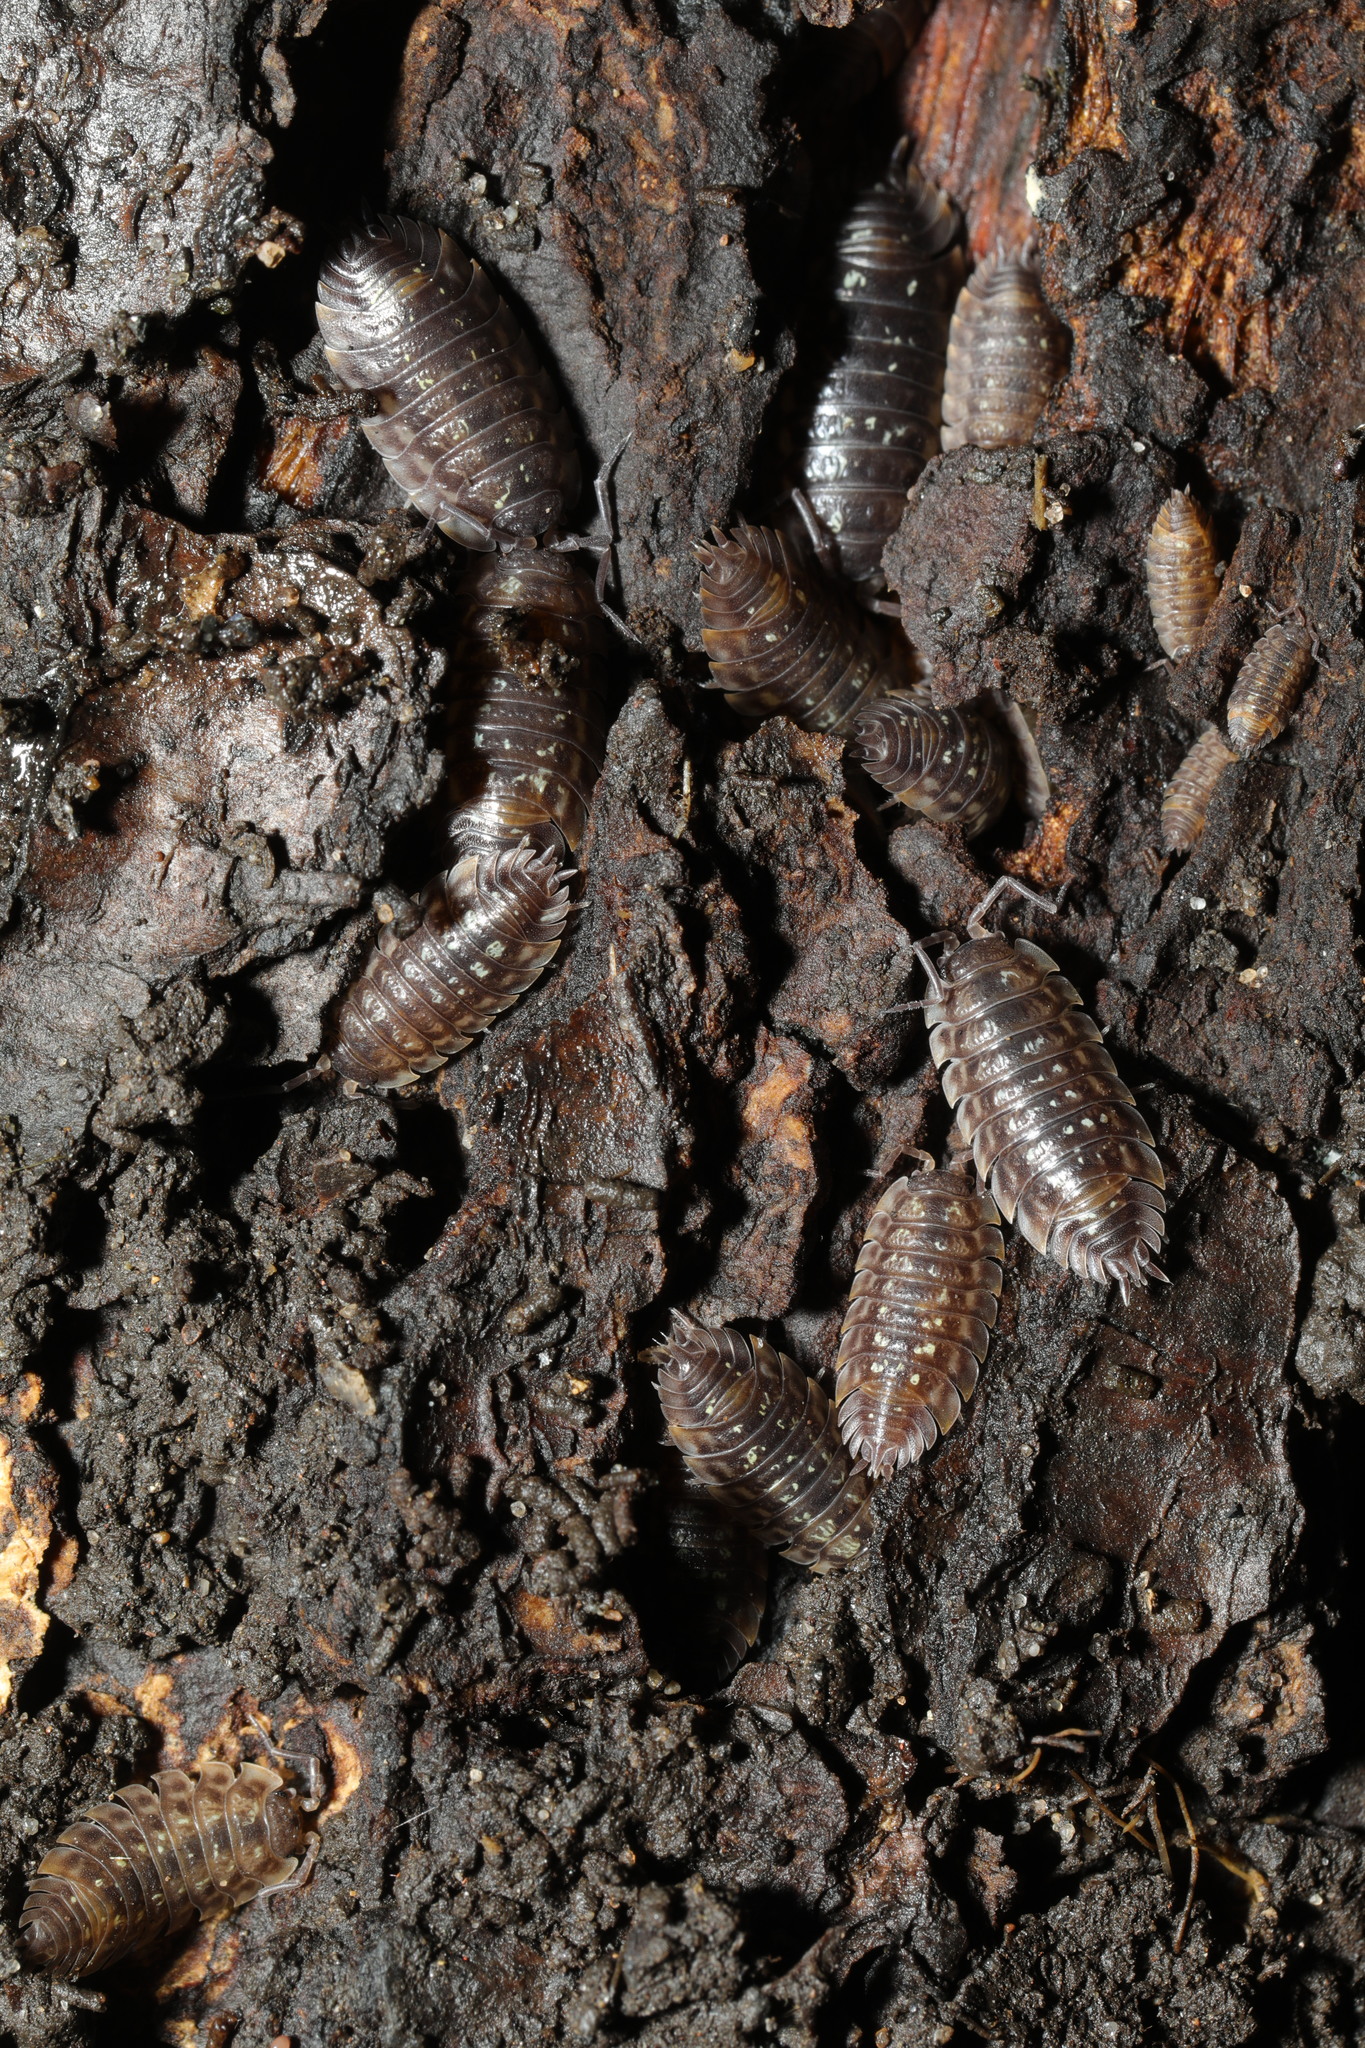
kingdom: Animalia
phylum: Arthropoda
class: Malacostraca
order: Isopoda
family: Oniscidae
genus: Oniscus
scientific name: Oniscus asellus
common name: Common shiny woodlouse
